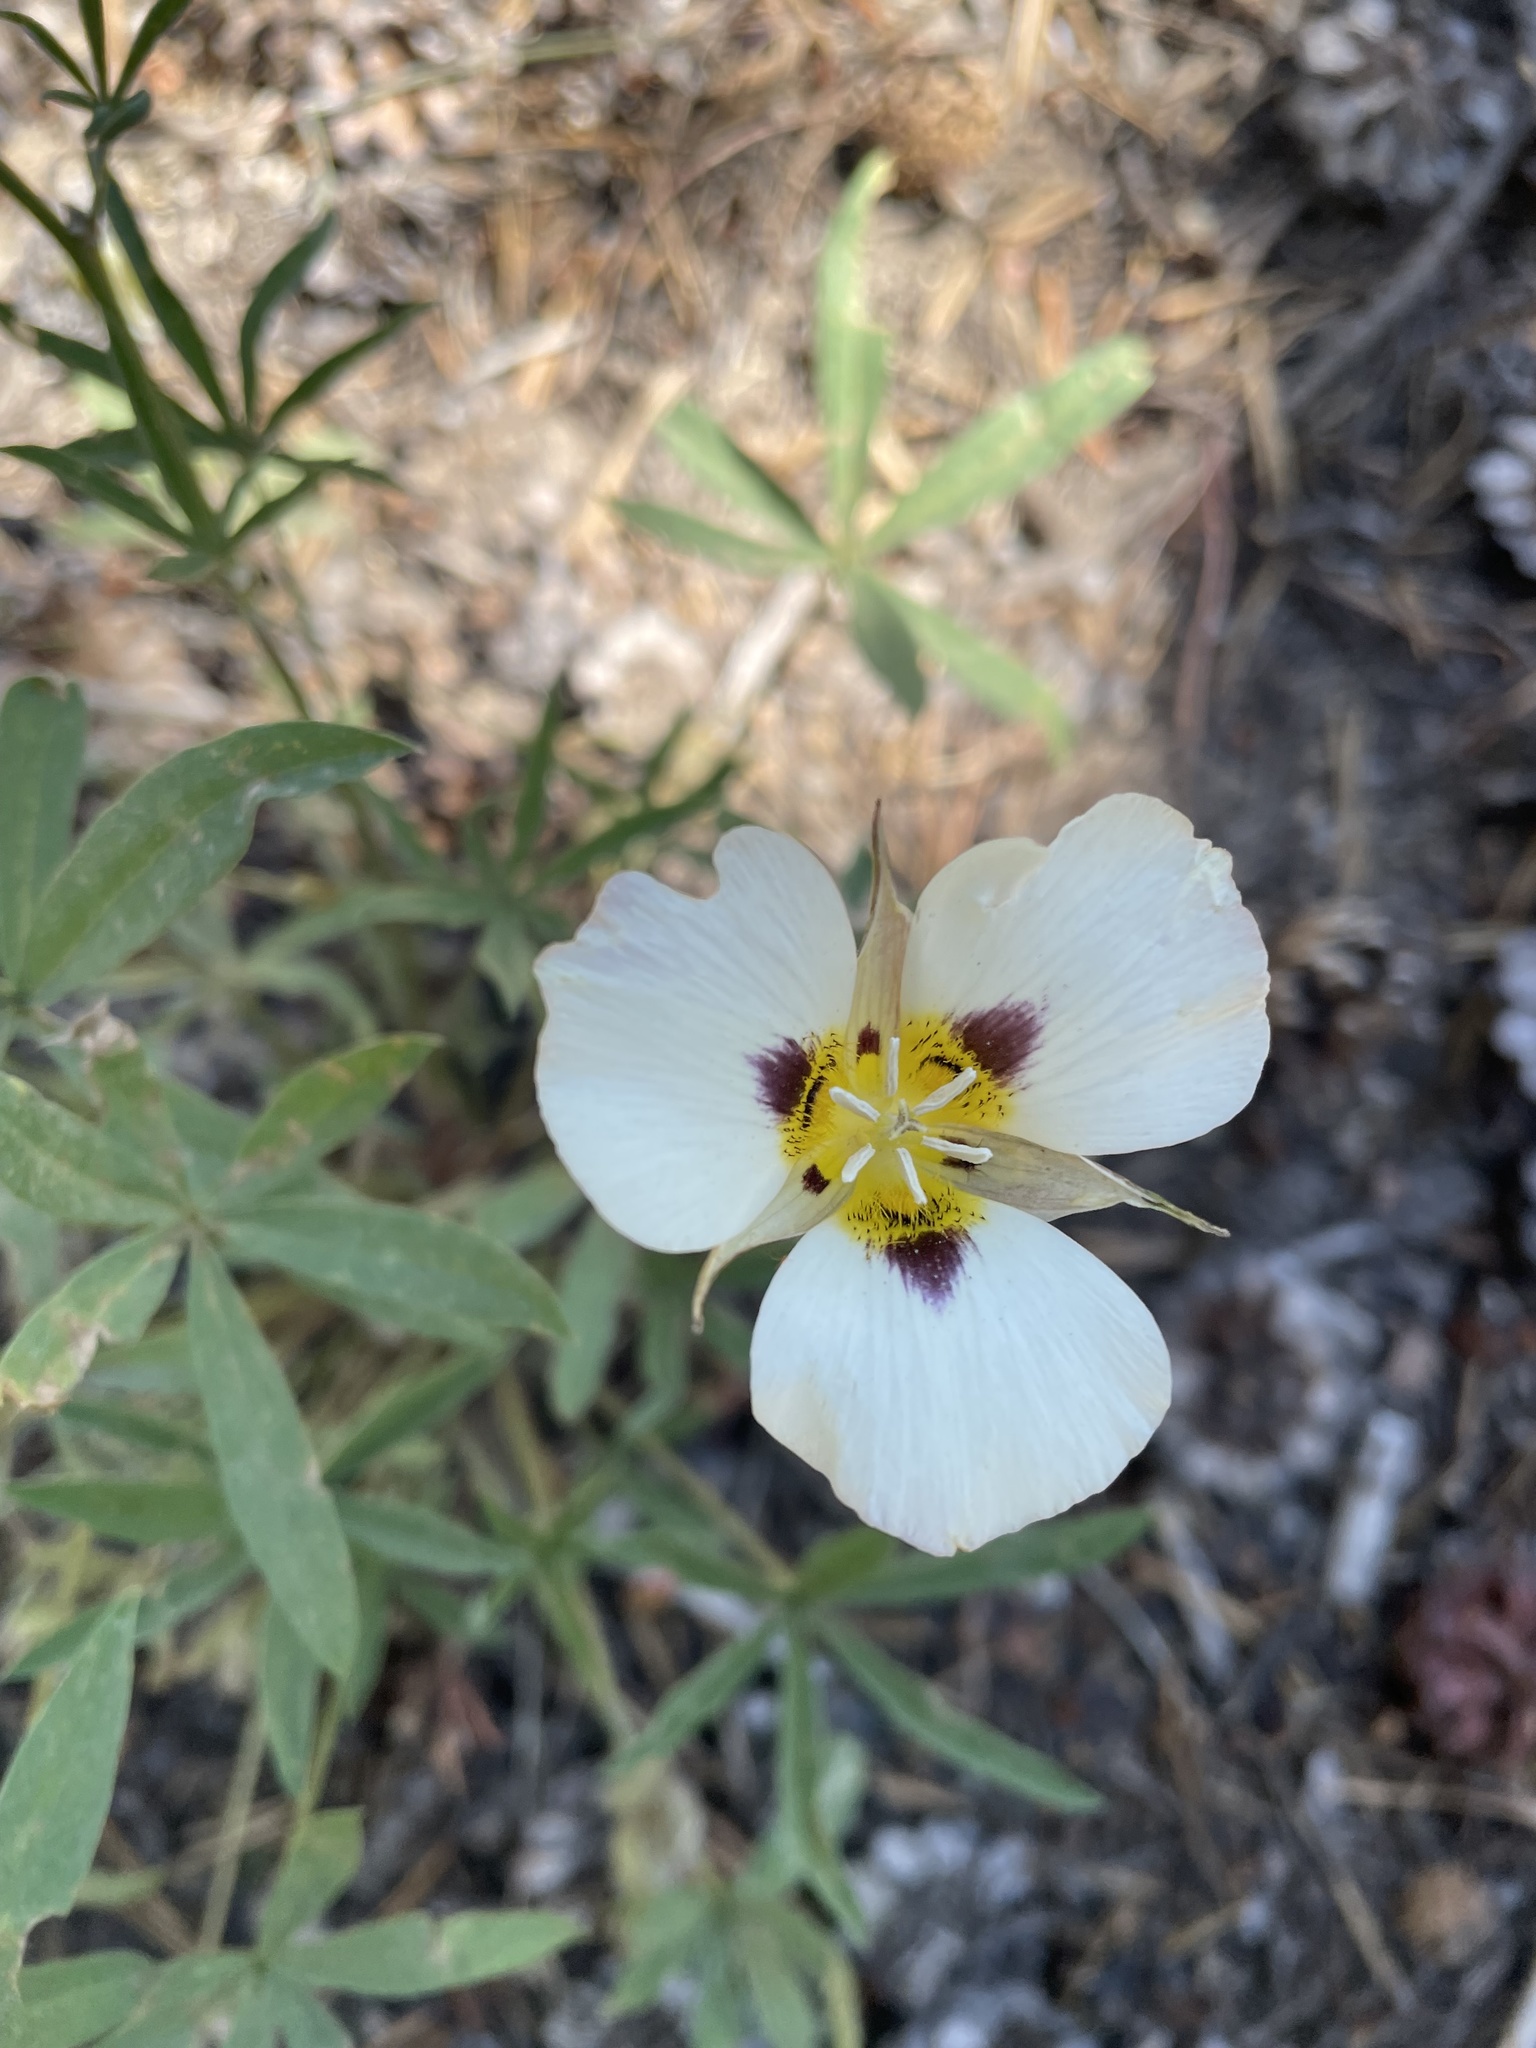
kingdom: Plantae
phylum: Tracheophyta
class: Liliopsida
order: Liliales
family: Liliaceae
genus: Calochortus
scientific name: Calochortus leichtlinii
